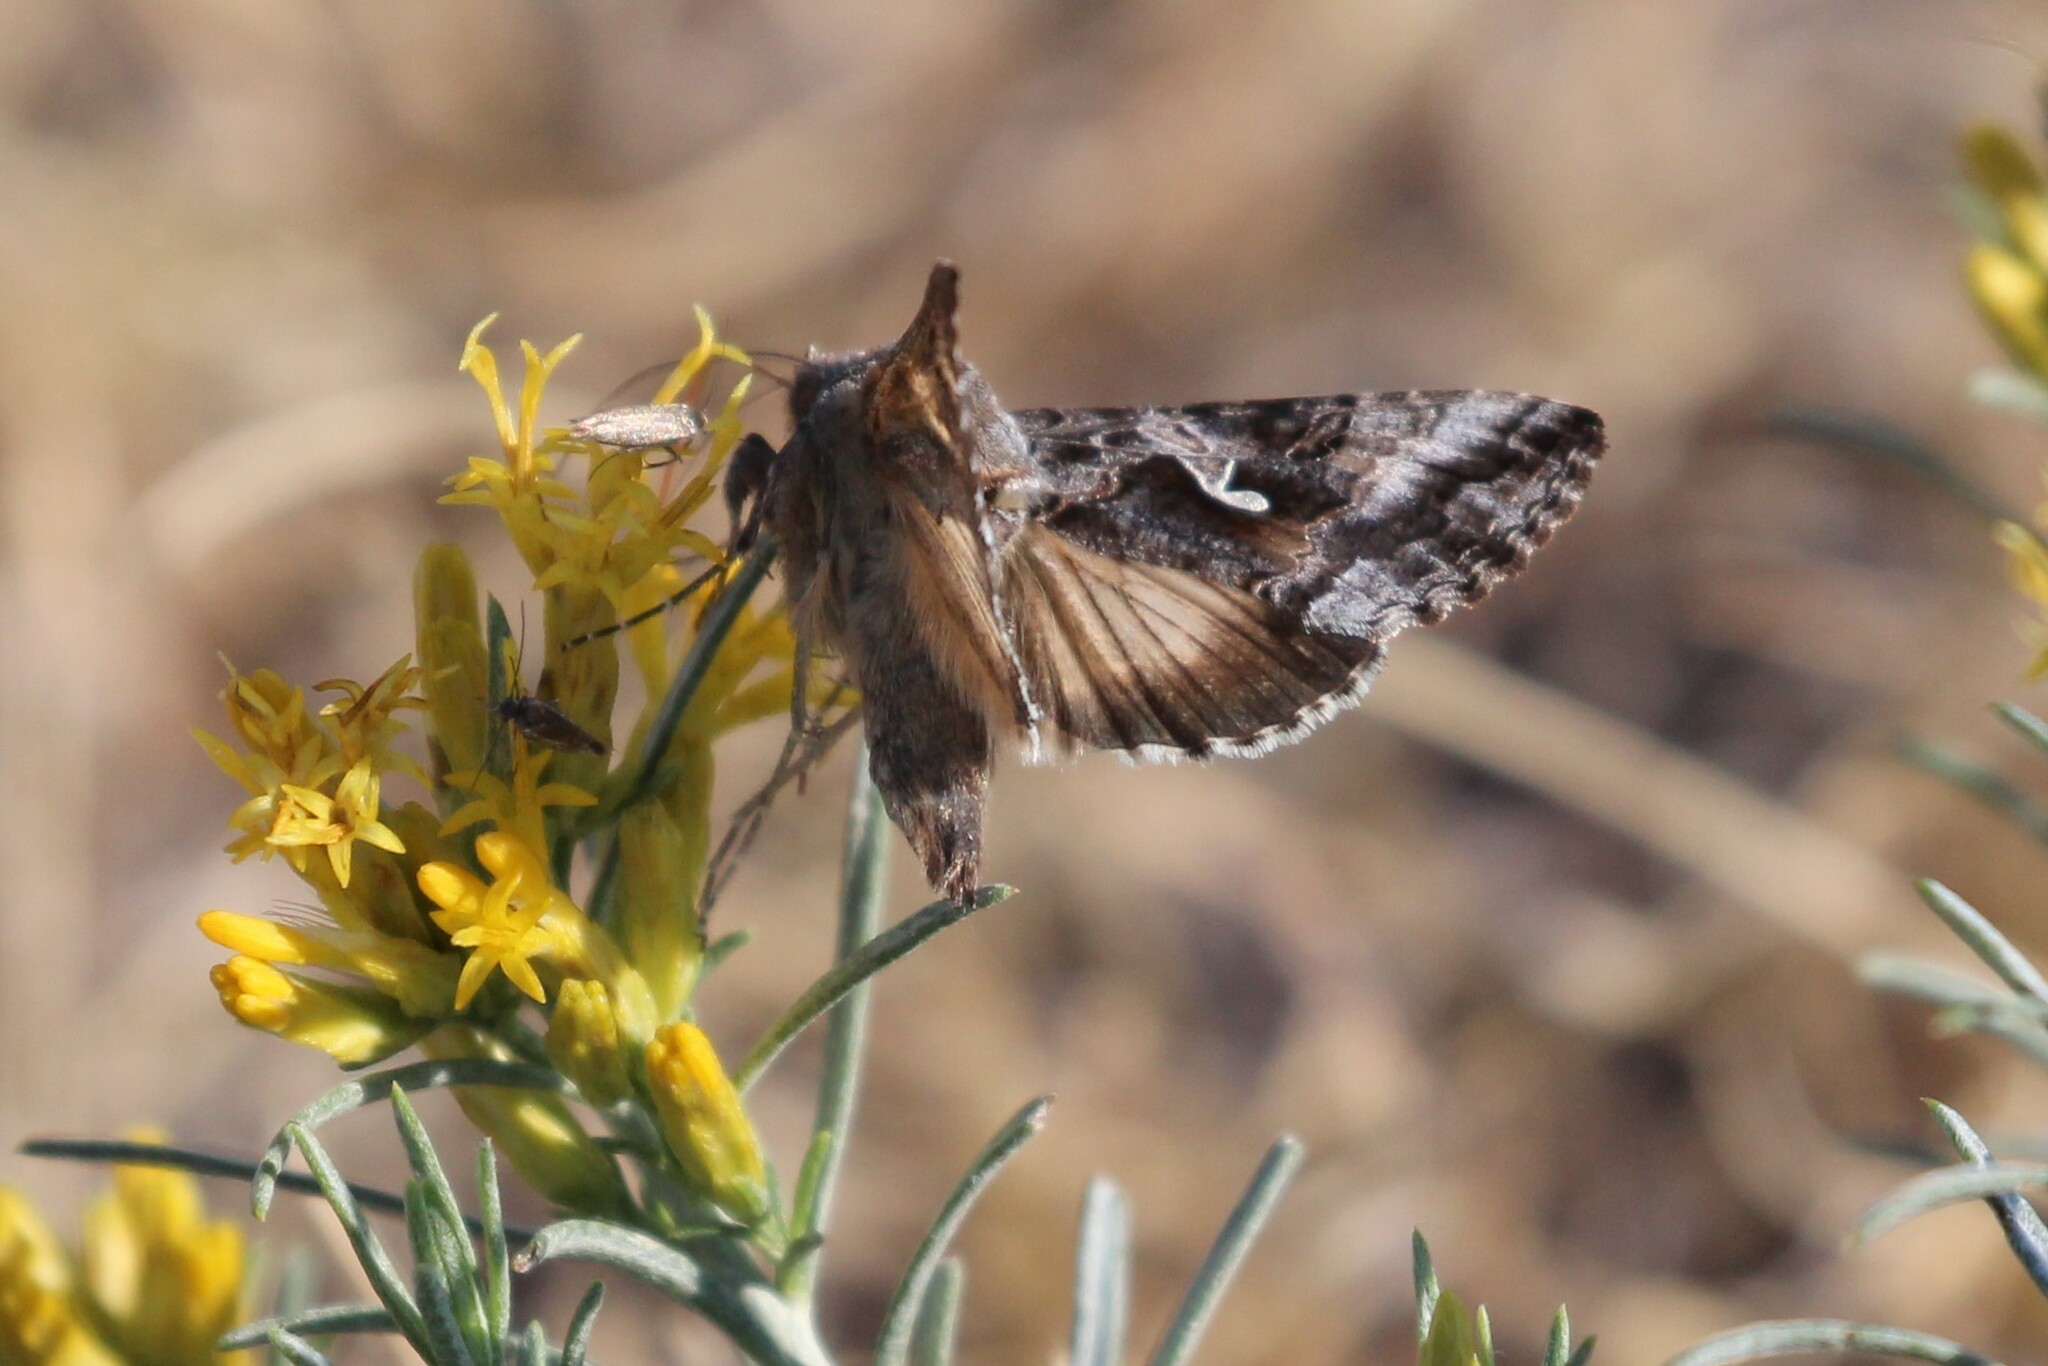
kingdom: Animalia
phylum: Arthropoda
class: Insecta
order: Lepidoptera
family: Noctuidae
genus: Autographa
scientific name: Autographa californica
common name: Alfalfa looper
